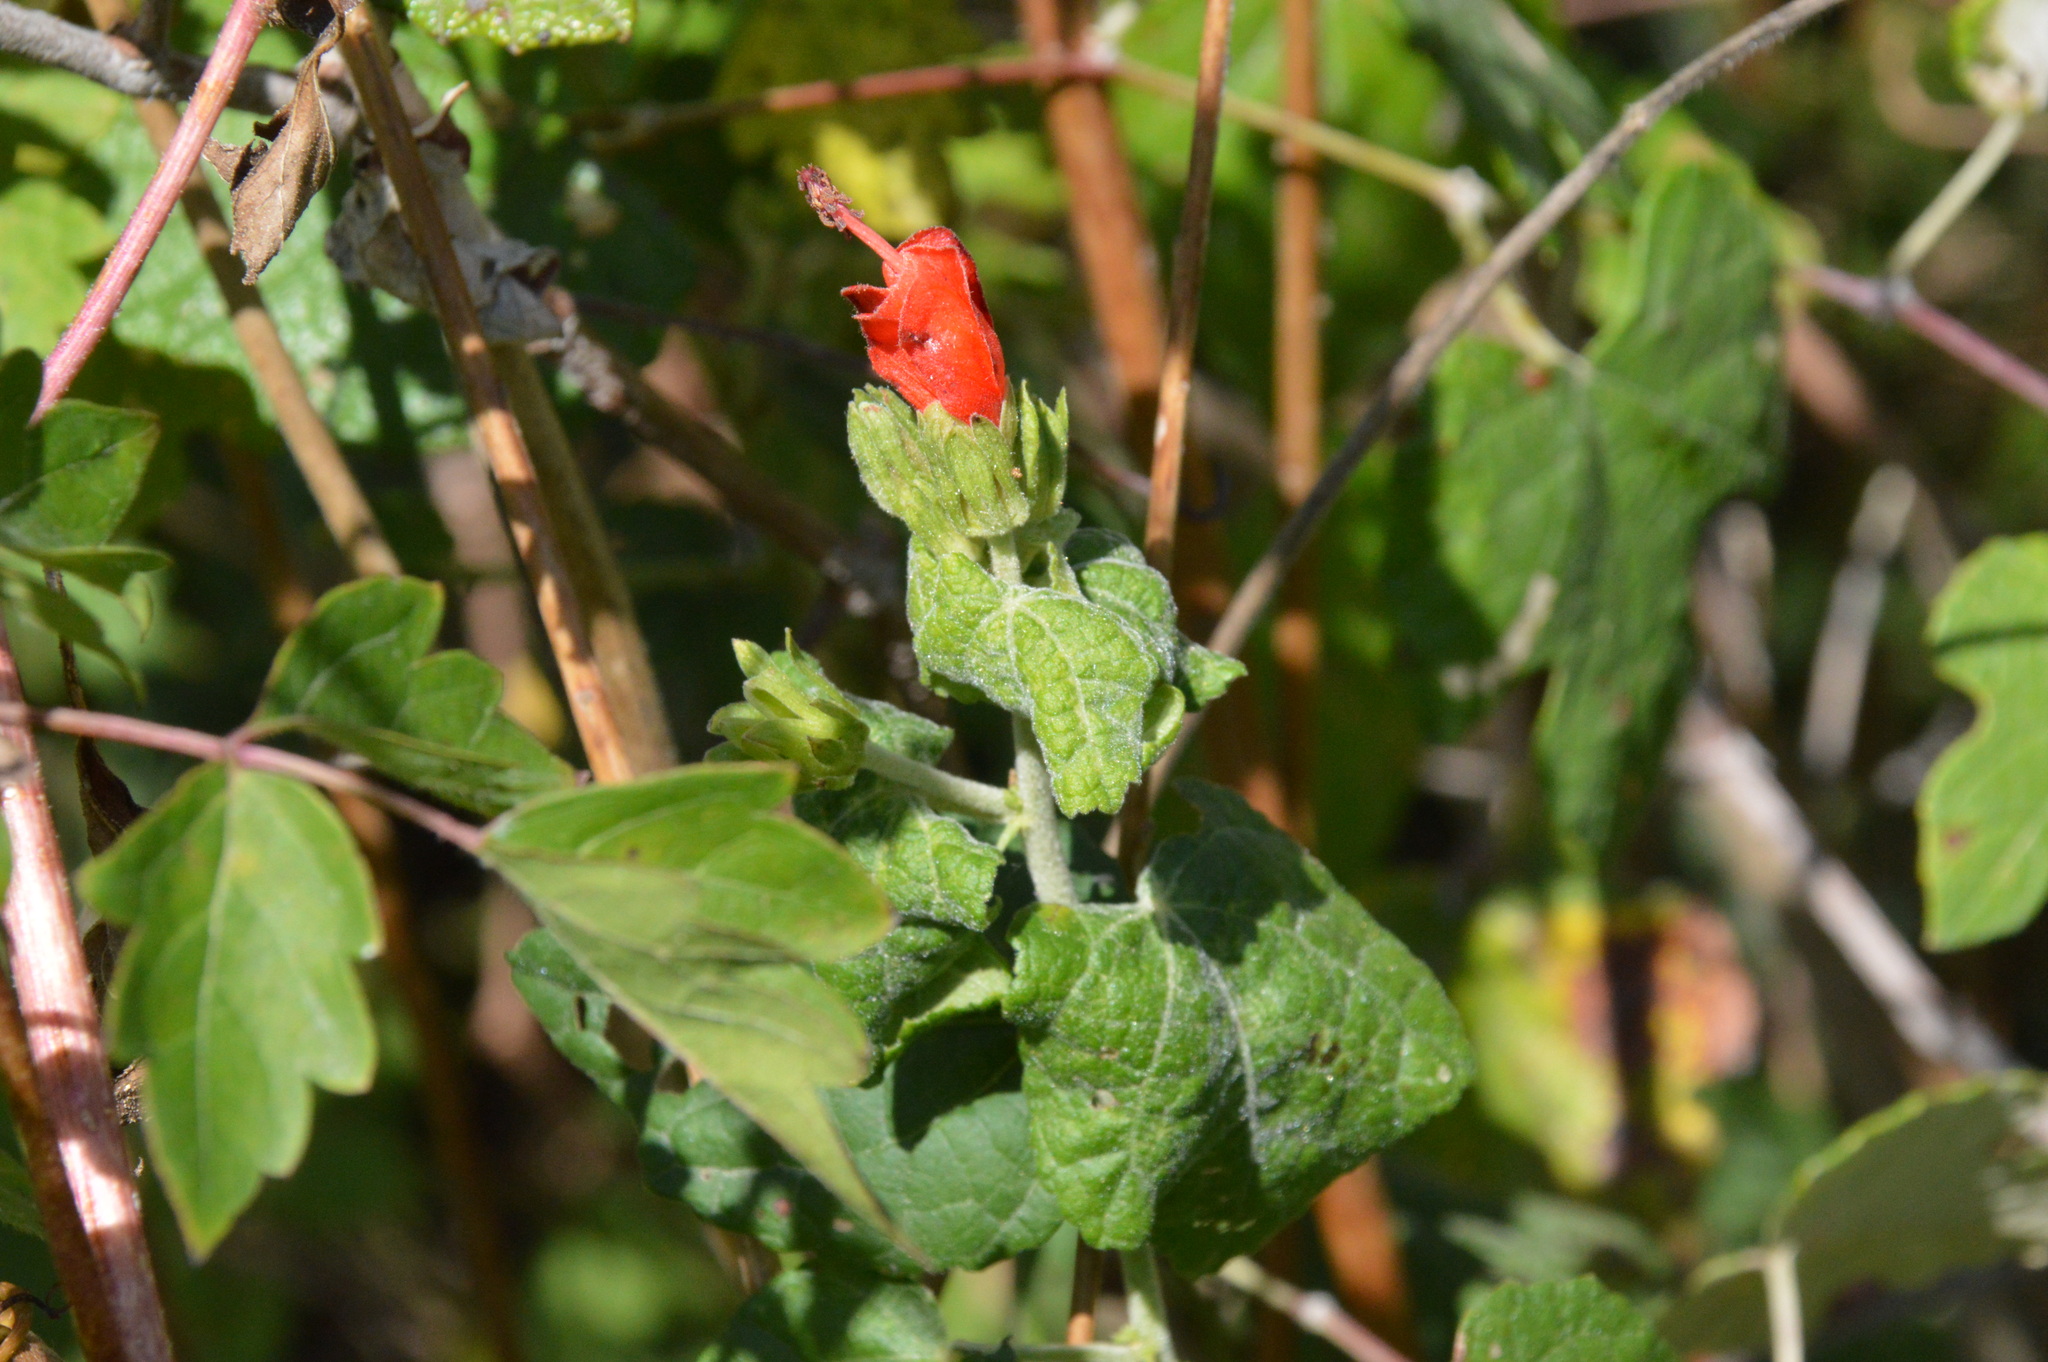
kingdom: Plantae
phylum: Tracheophyta
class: Magnoliopsida
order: Malvales
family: Malvaceae
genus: Malvaviscus
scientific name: Malvaviscus arboreus
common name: Wax mallow
